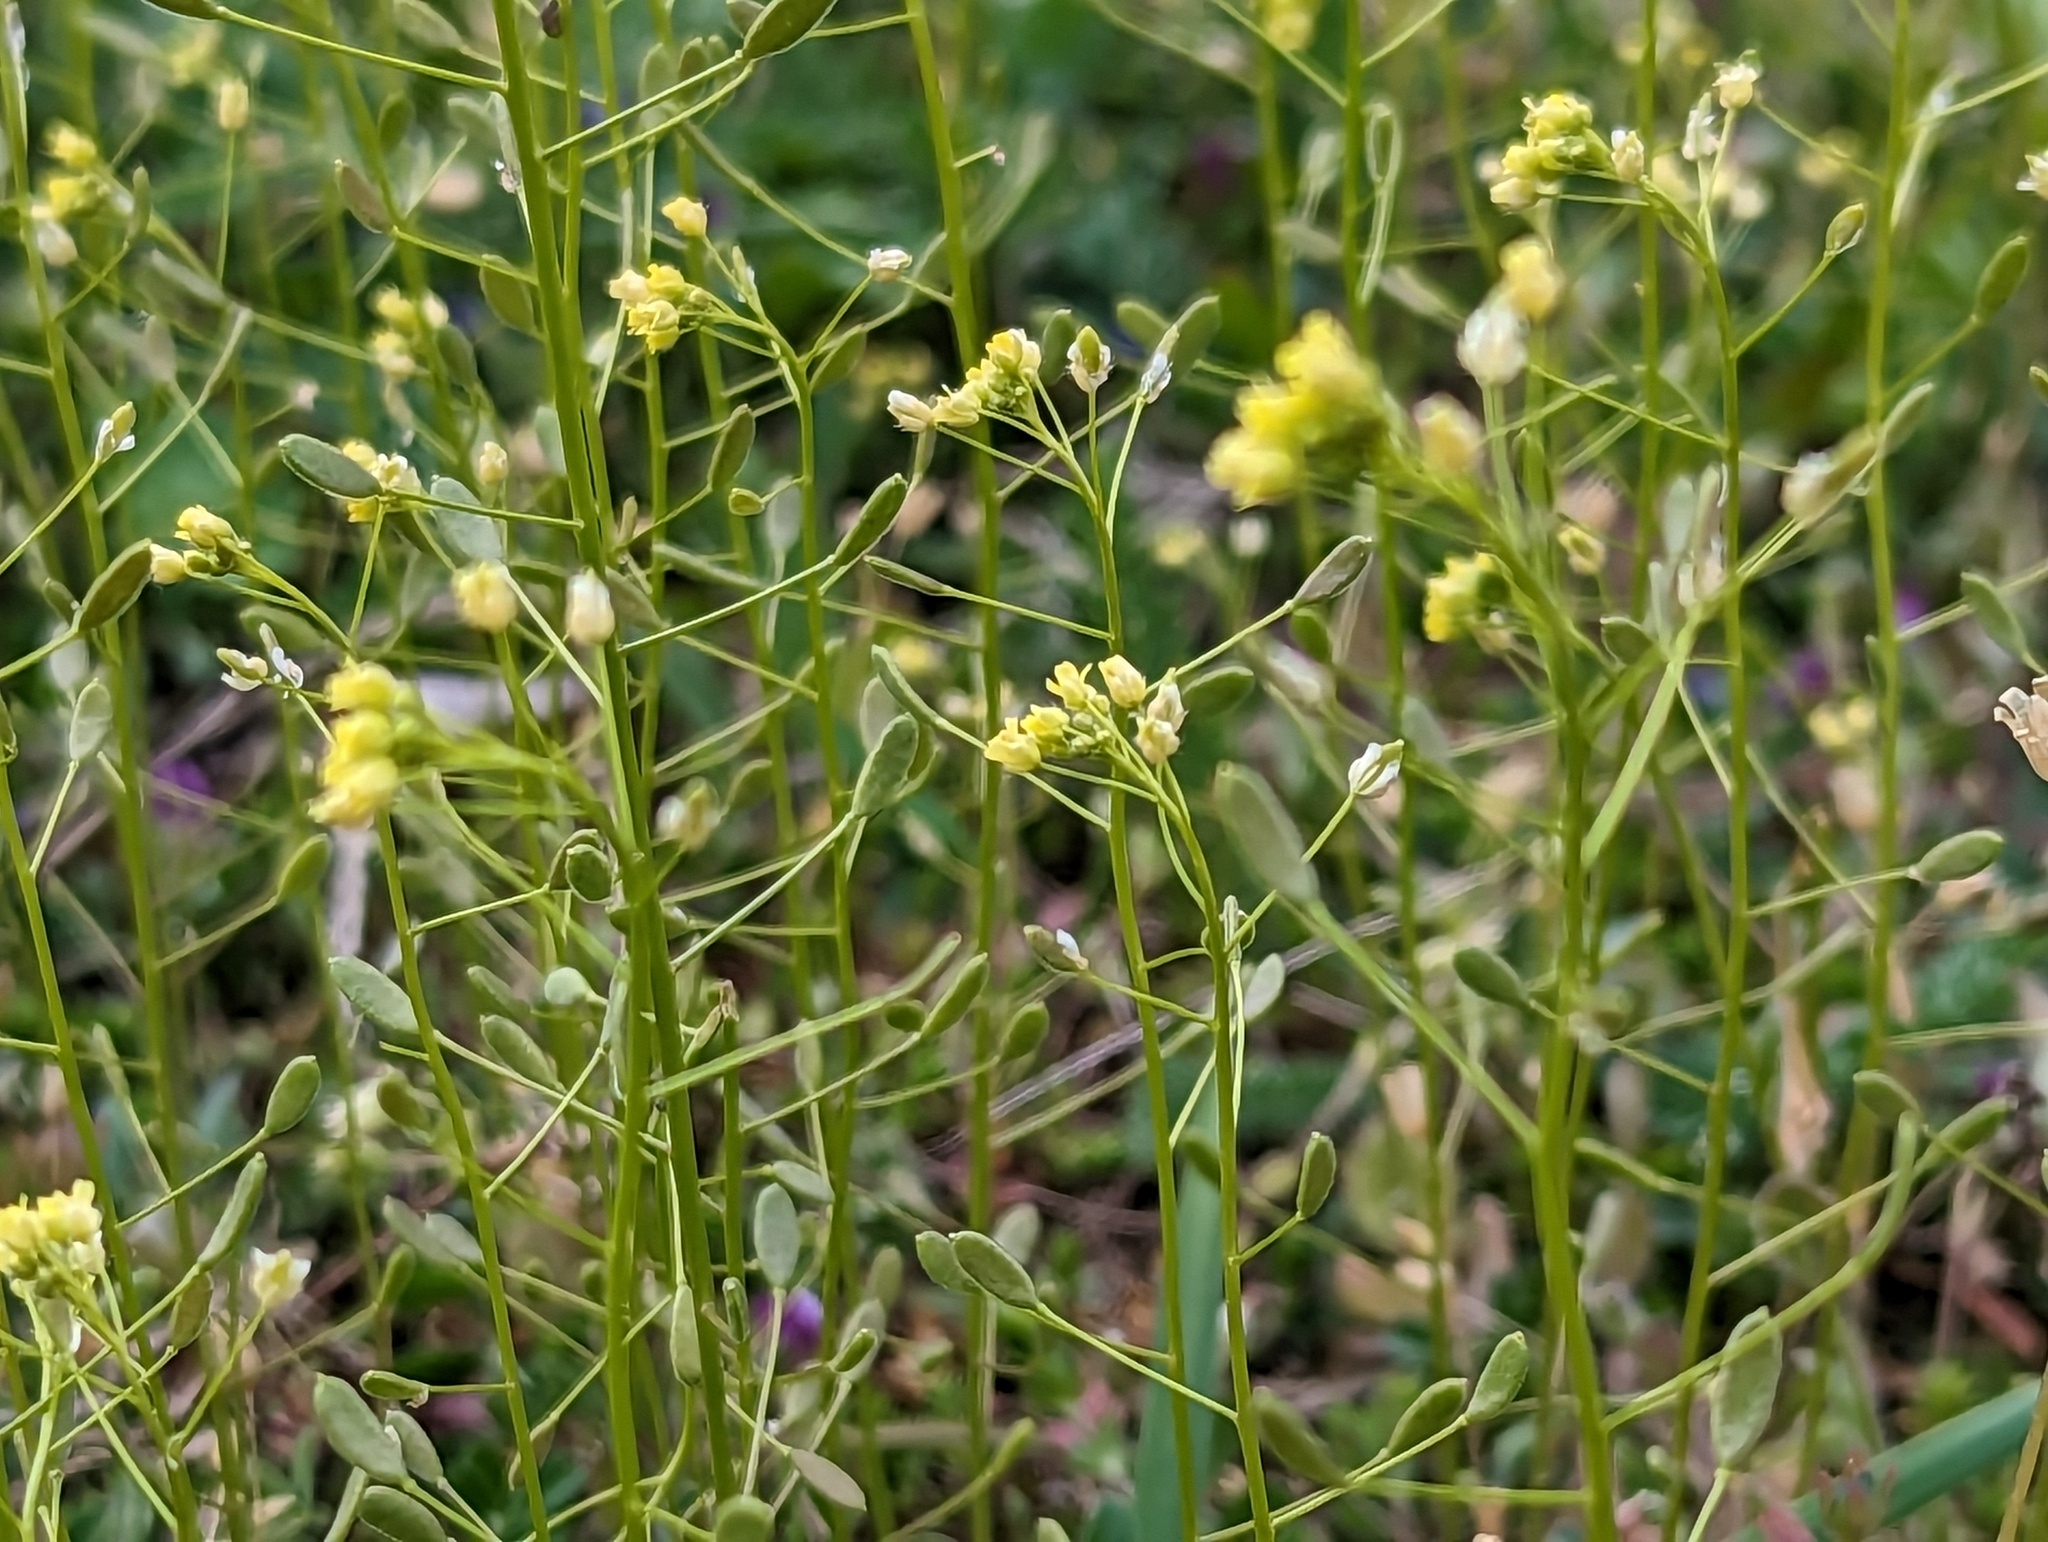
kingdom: Plantae
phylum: Tracheophyta
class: Magnoliopsida
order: Brassicales
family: Brassicaceae
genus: Draba
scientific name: Draba nemorosa
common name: Wood whitlow-grass
